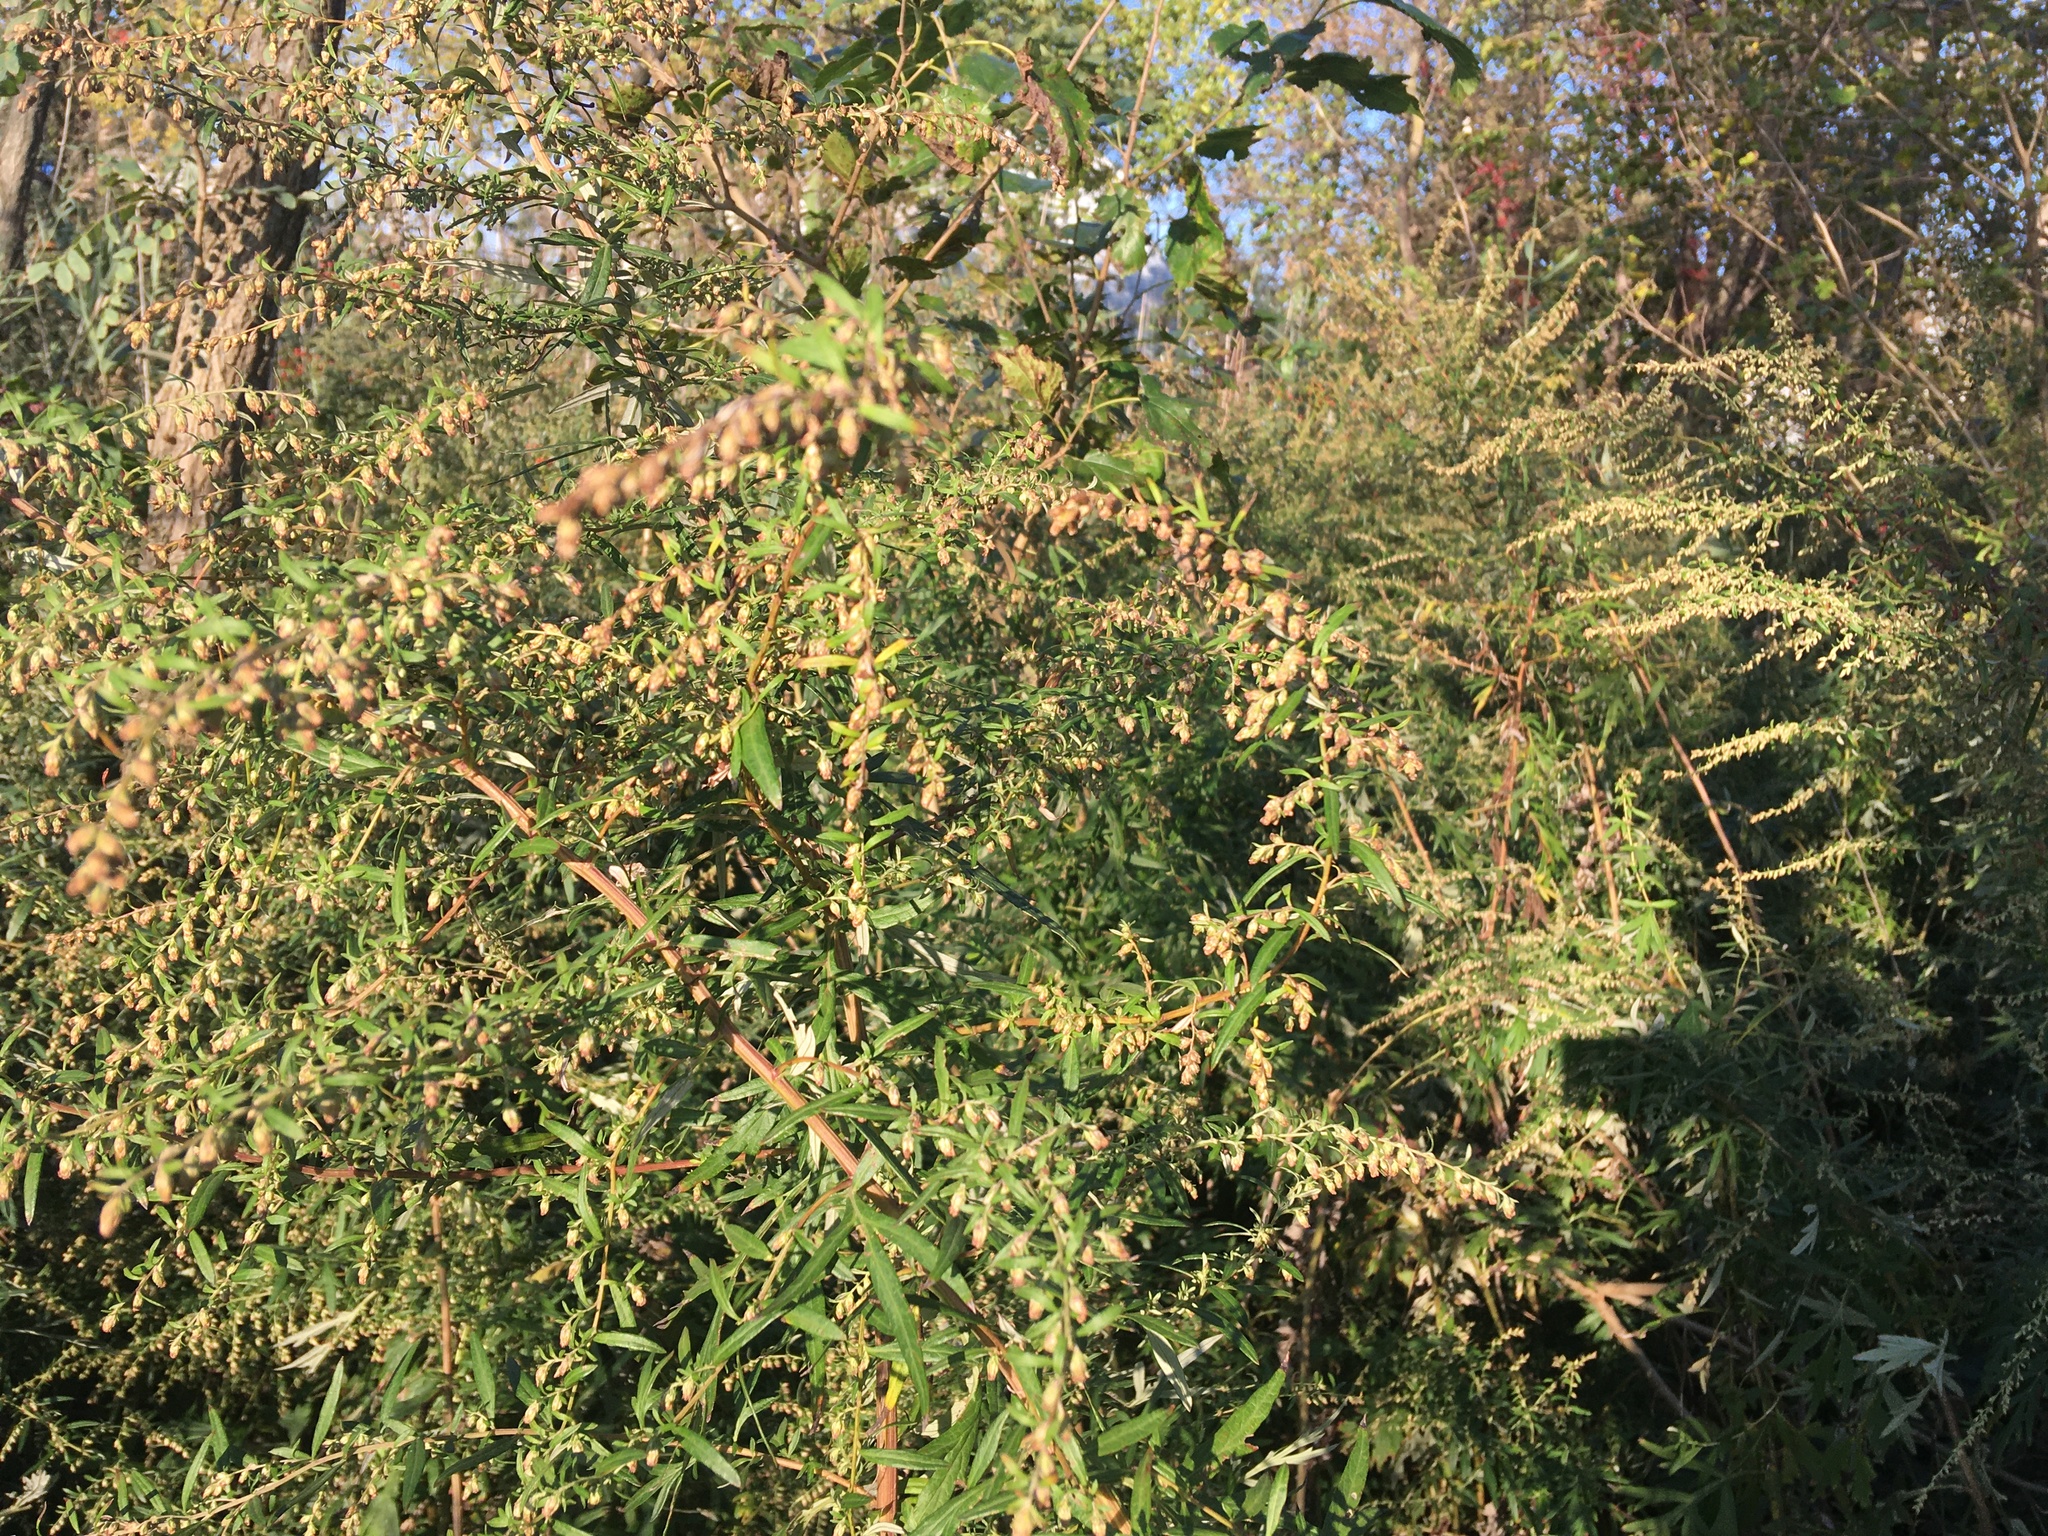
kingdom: Plantae
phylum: Tracheophyta
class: Magnoliopsida
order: Asterales
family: Asteraceae
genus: Artemisia
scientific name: Artemisia vulgaris
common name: Mugwort
